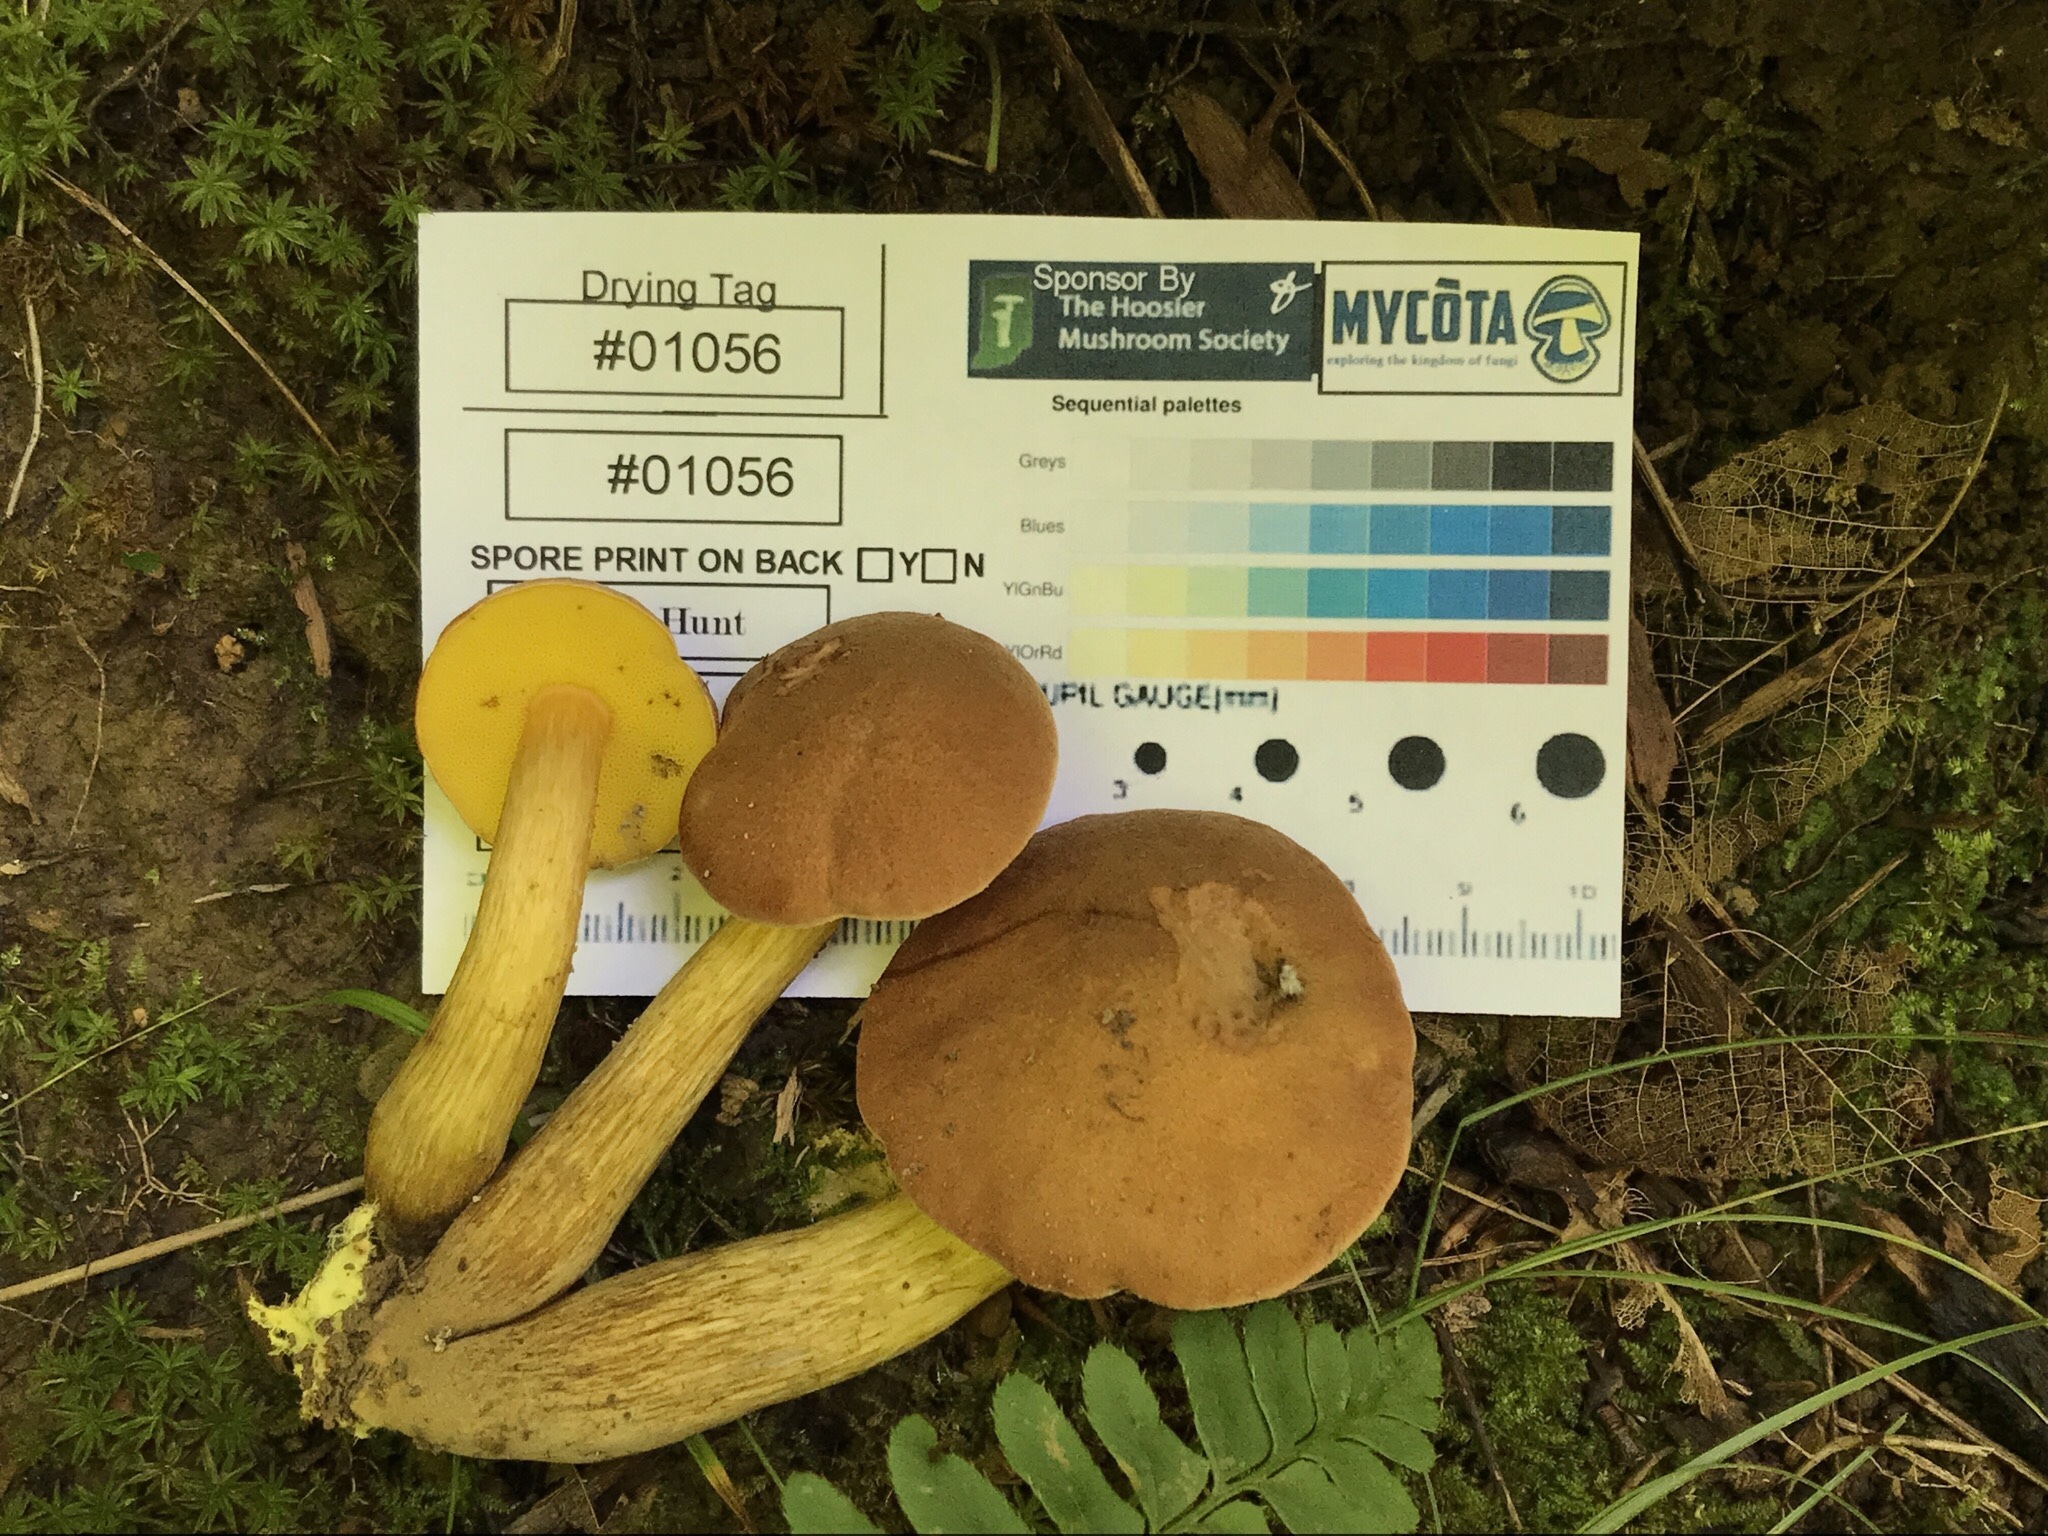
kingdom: Fungi
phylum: Basidiomycota
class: Agaricomycetes
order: Boletales
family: Boletaceae
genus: Aureoboletus
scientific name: Aureoboletus innixus
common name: Clustered brown bolete
